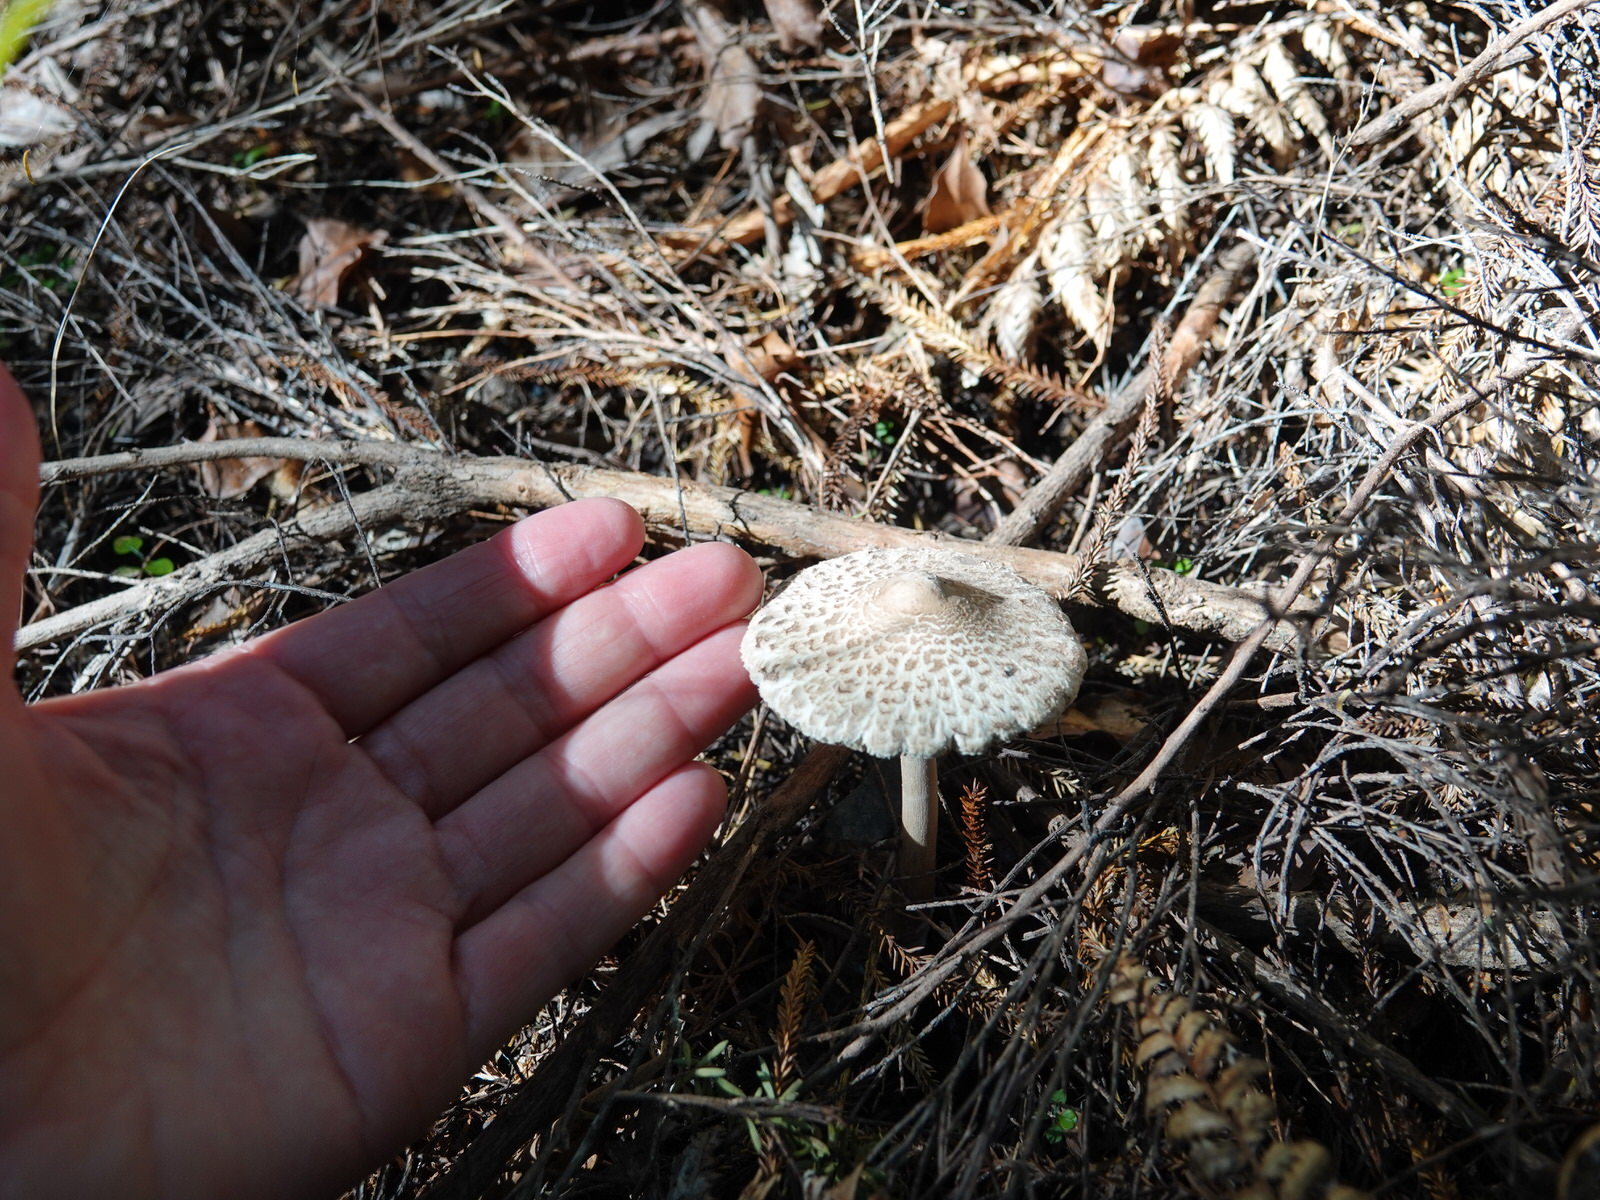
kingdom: Fungi
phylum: Basidiomycota
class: Agaricomycetes
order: Agaricales
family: Agaricaceae
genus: Macrolepiota
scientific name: Macrolepiota clelandii
